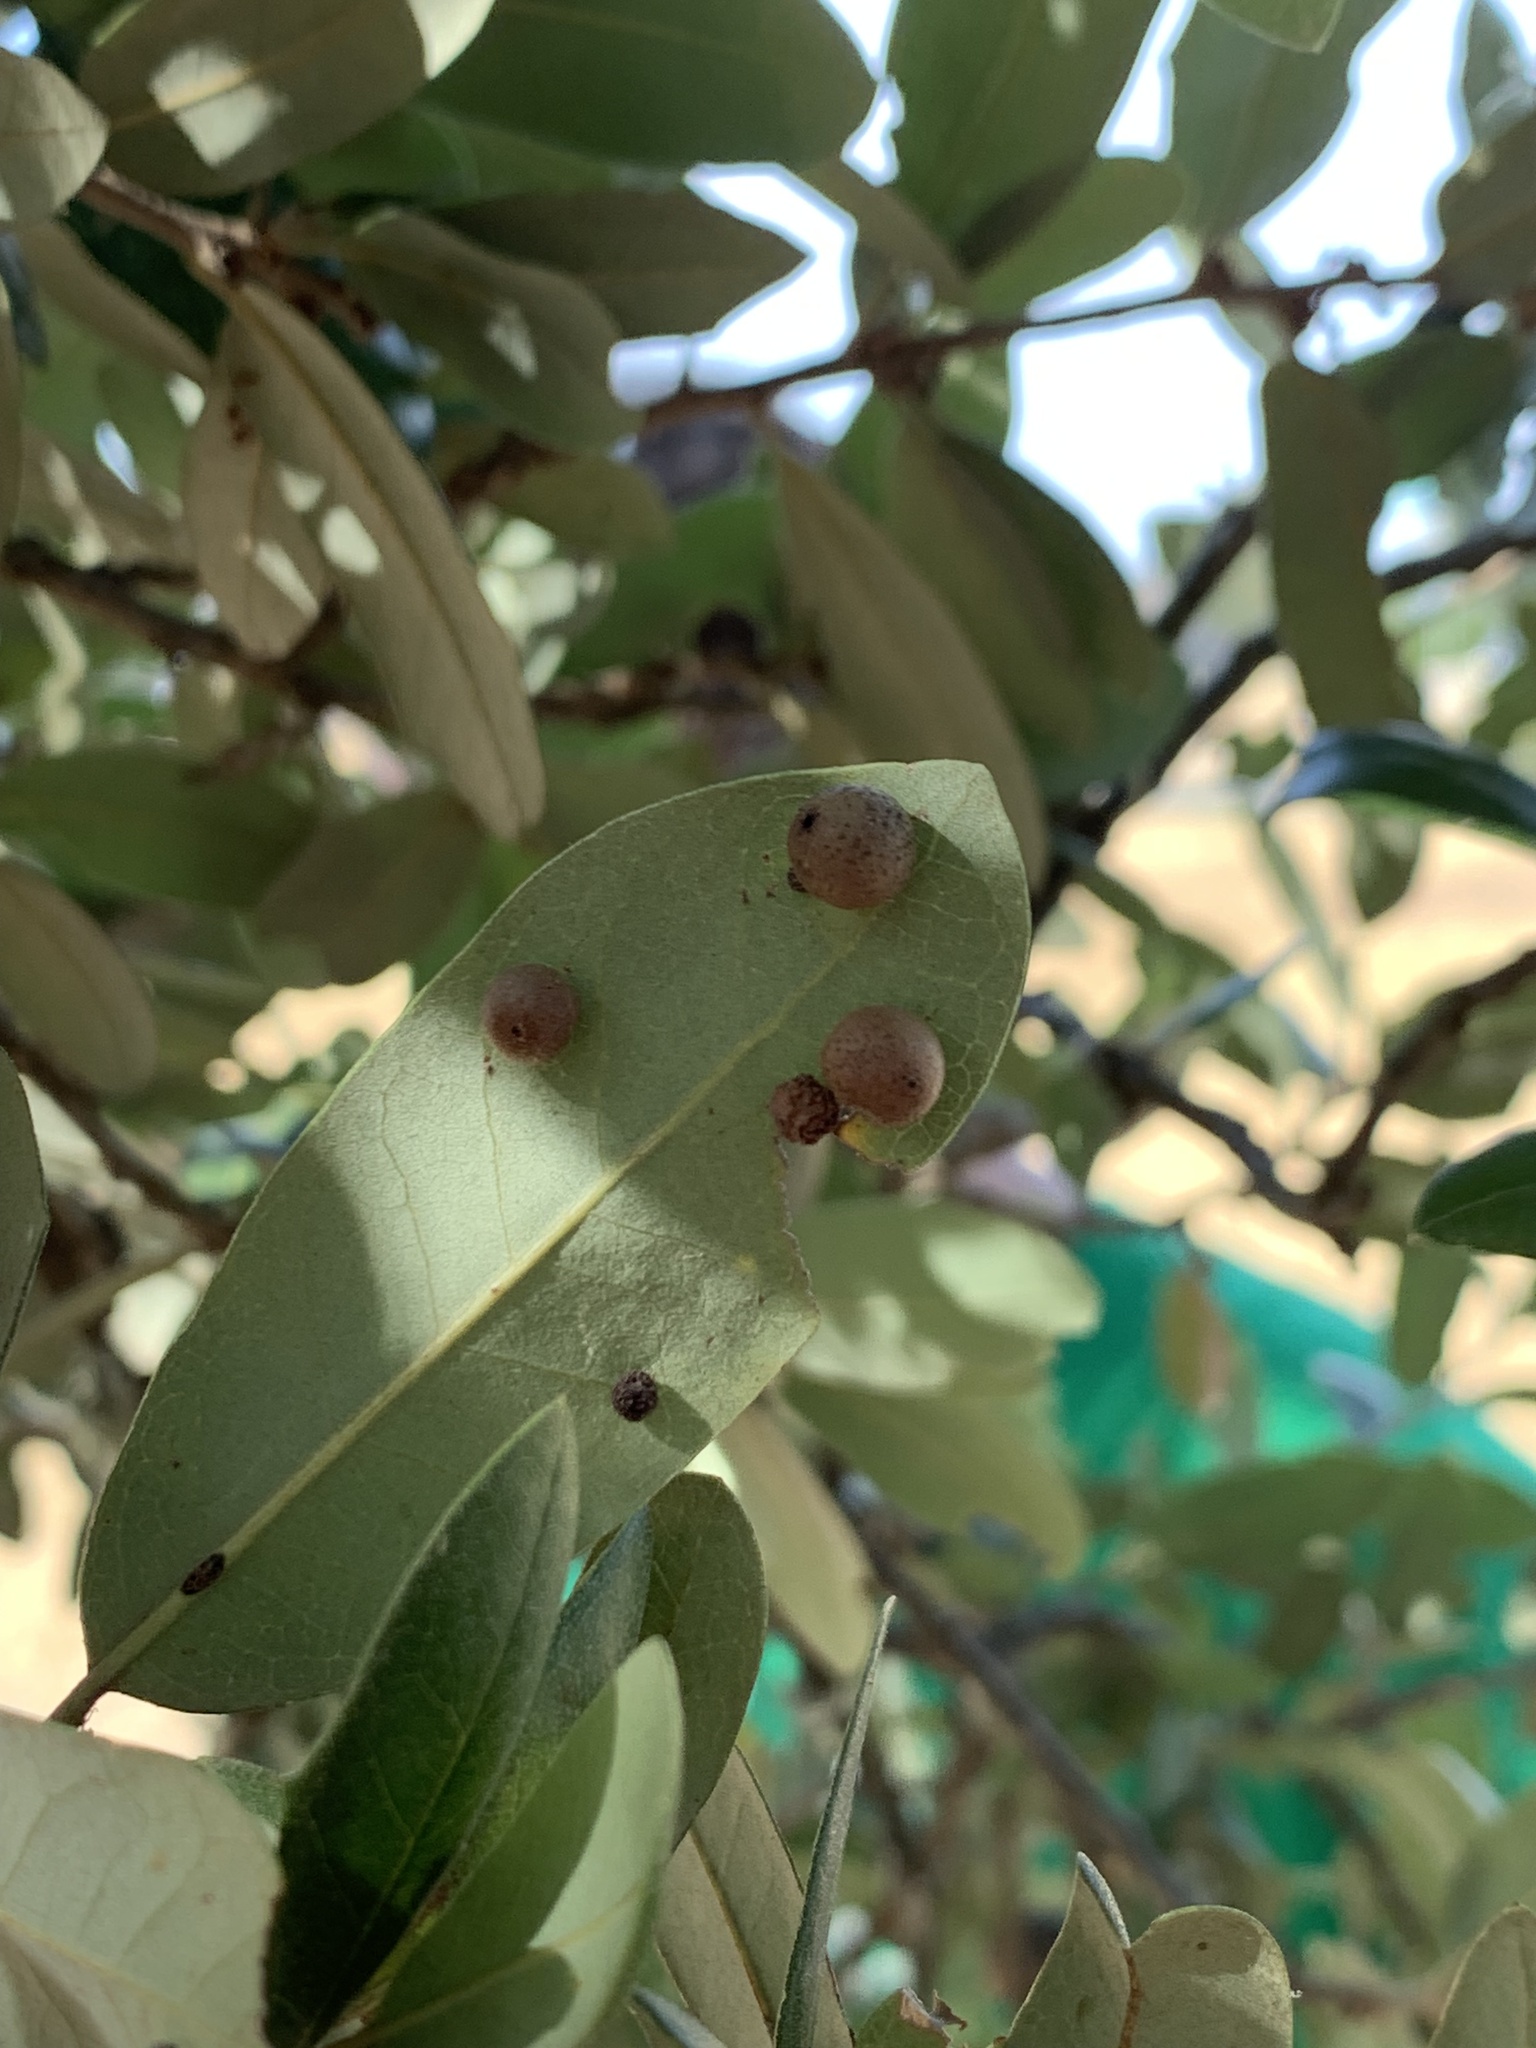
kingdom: Animalia
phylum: Arthropoda
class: Insecta
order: Hymenoptera
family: Cynipidae
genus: Belonocnema
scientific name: Belonocnema kinseyi
